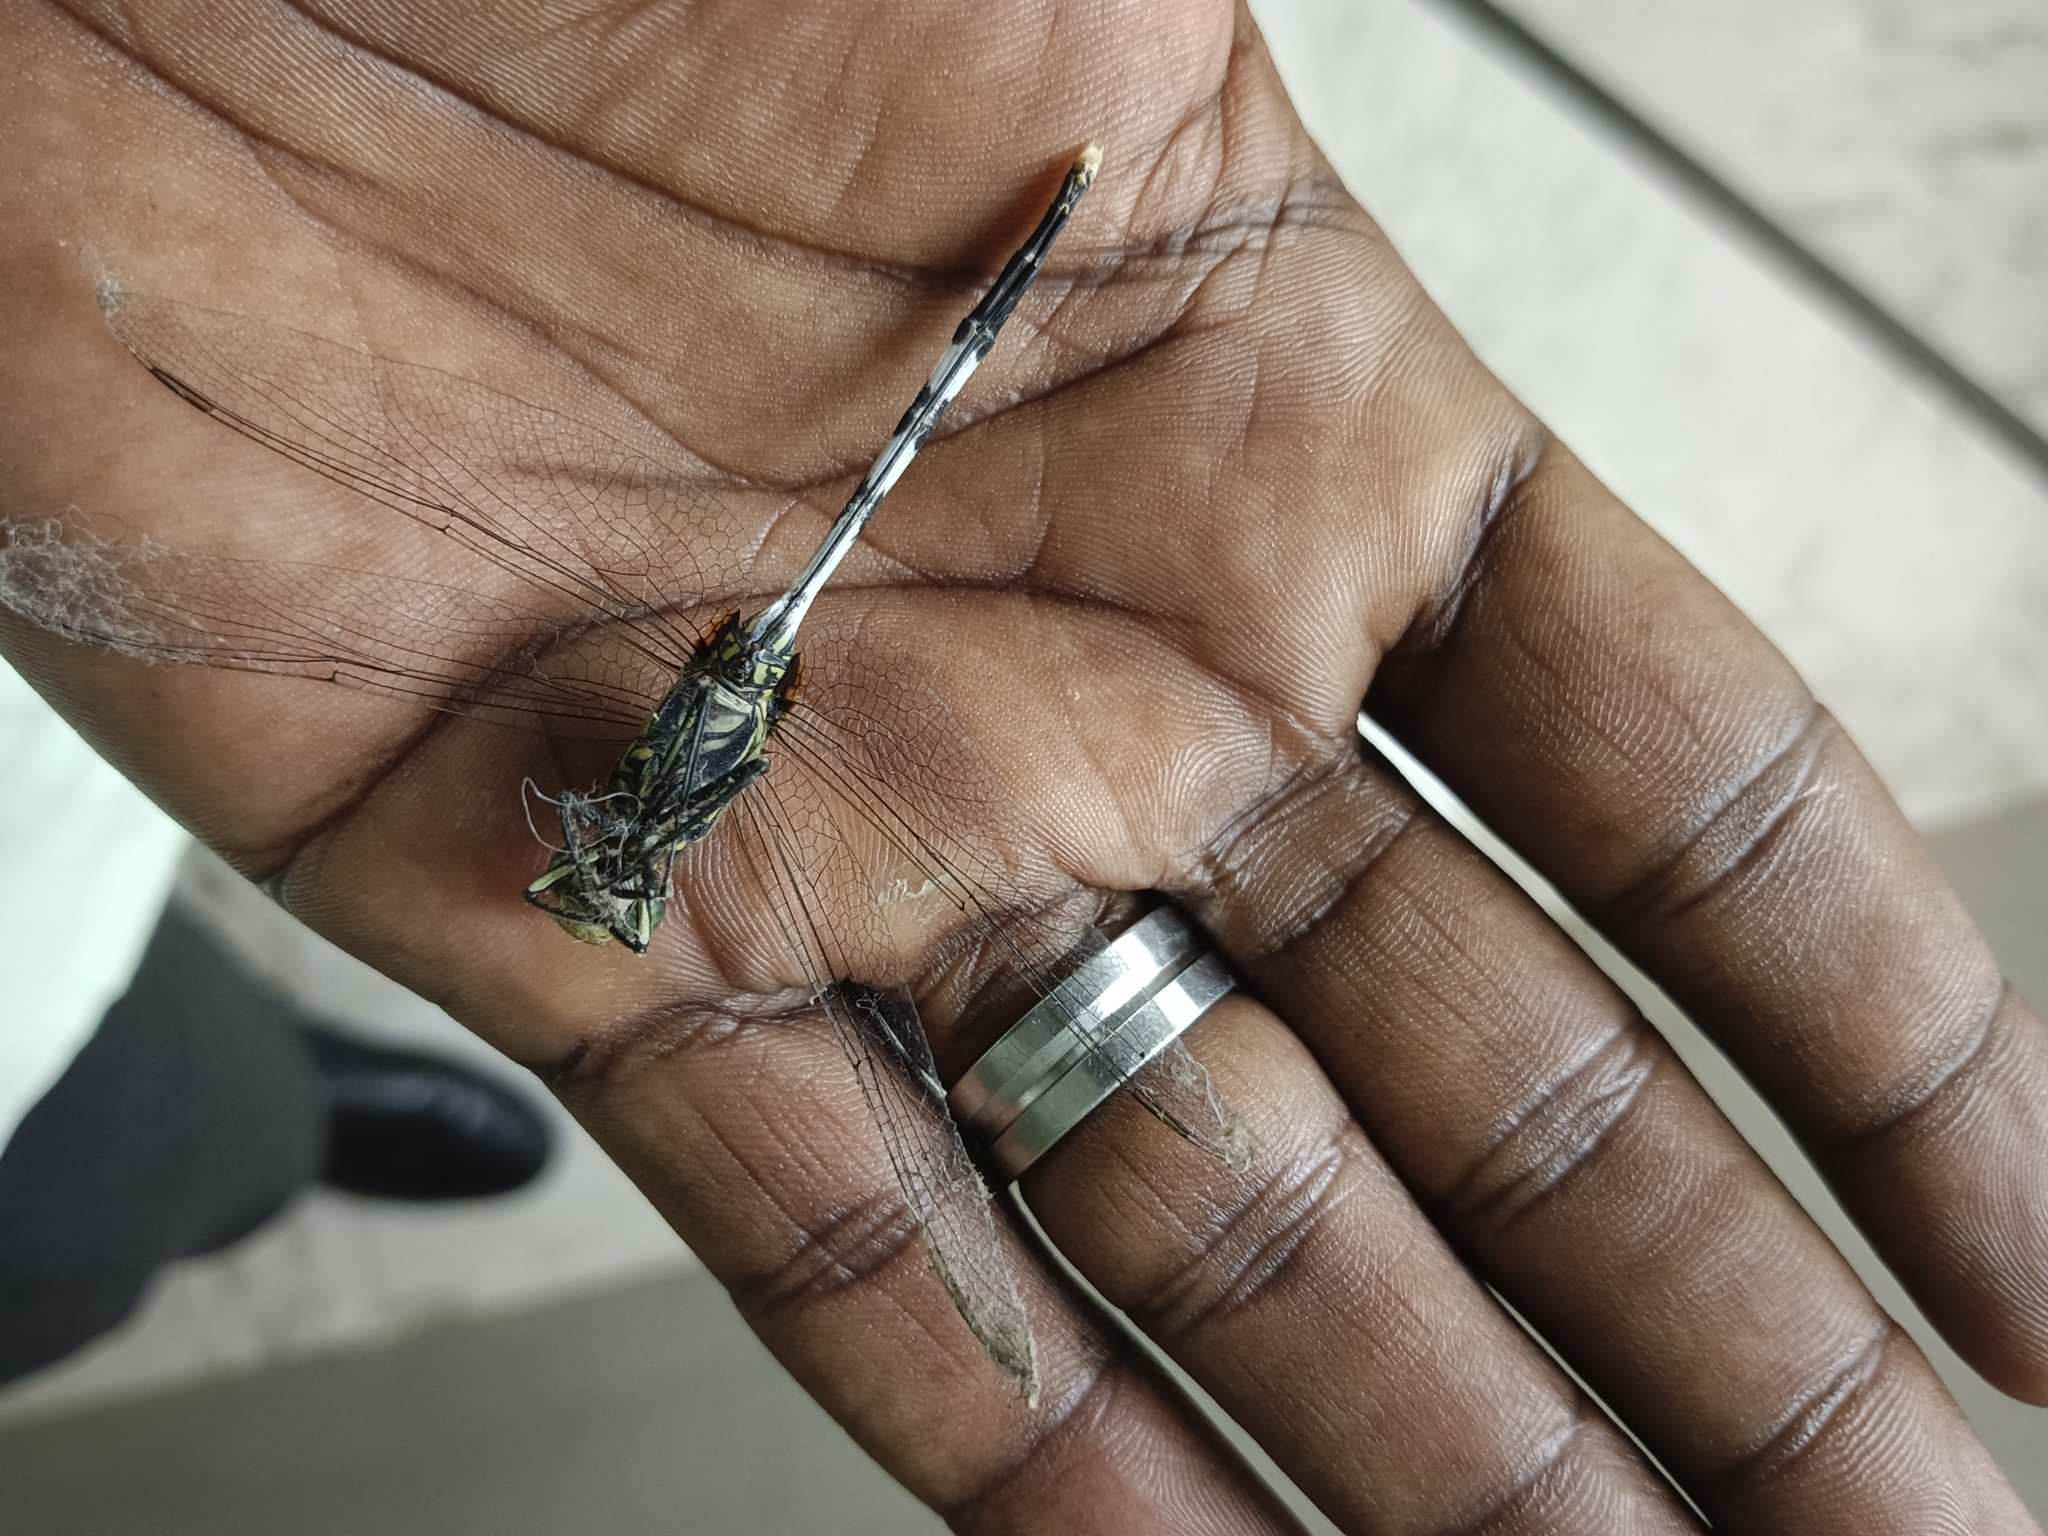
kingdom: Animalia
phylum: Arthropoda
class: Insecta
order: Odonata
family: Libellulidae
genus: Orthetrum
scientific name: Orthetrum sabina
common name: Slender skimmer
